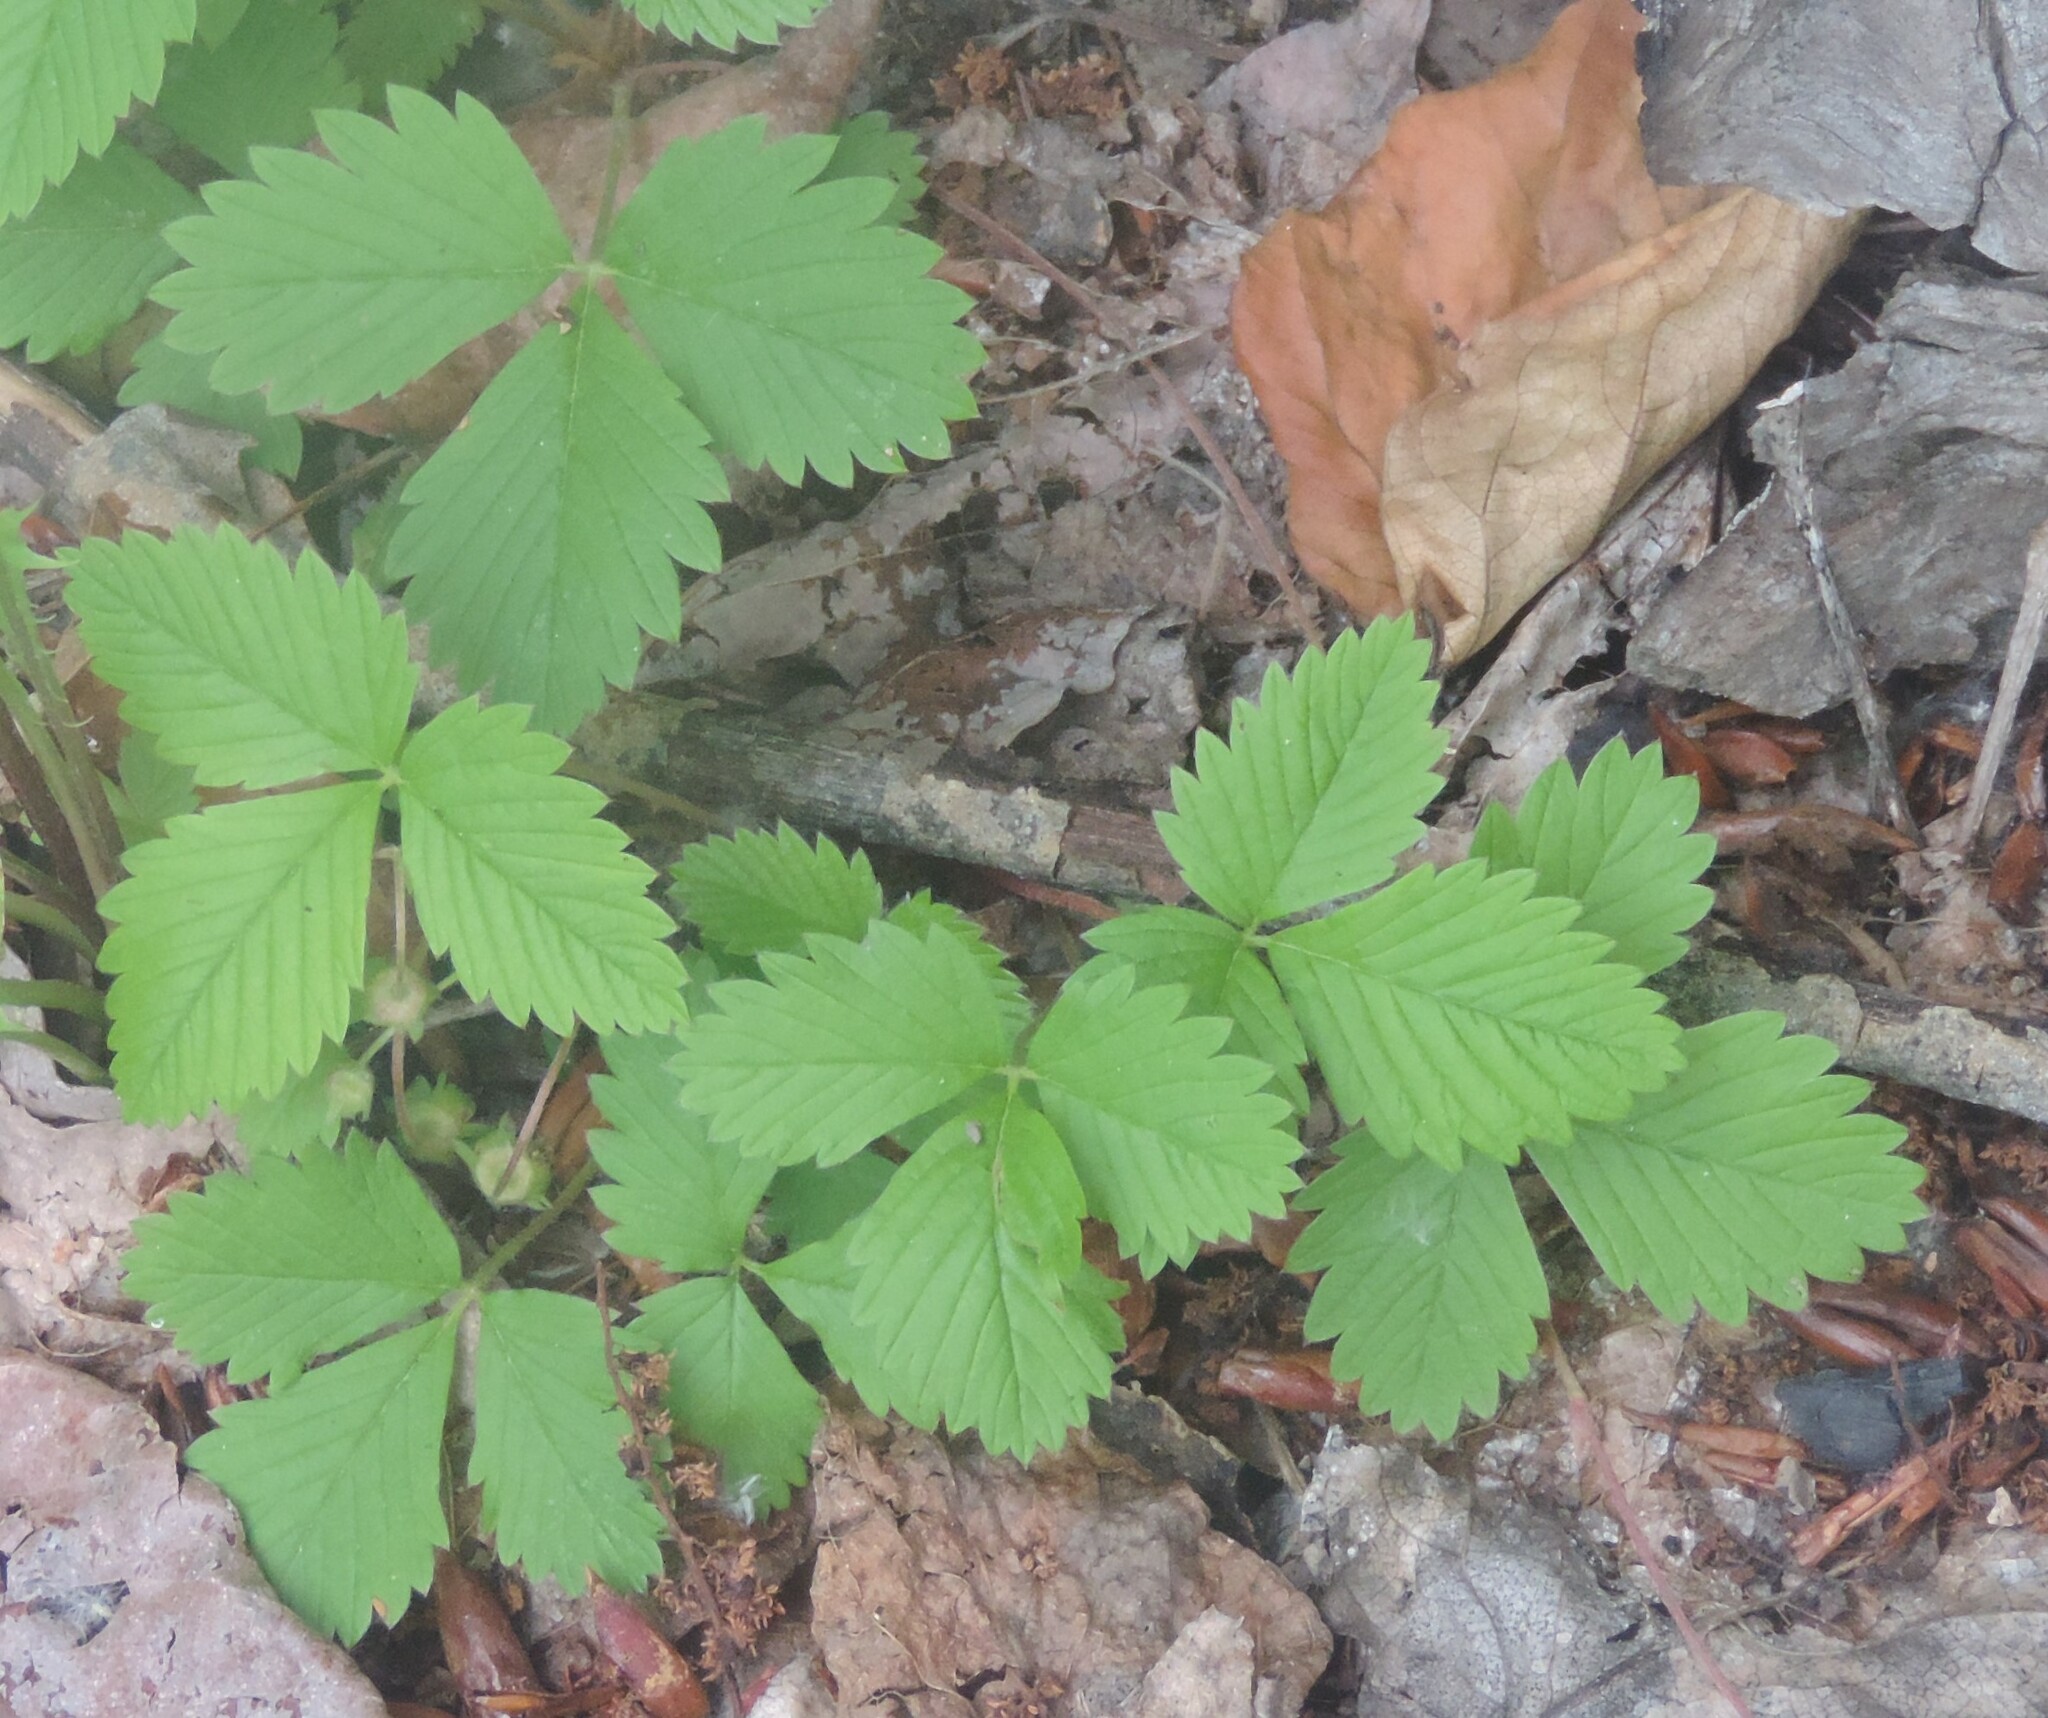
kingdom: Plantae
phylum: Tracheophyta
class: Magnoliopsida
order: Rosales
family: Rosaceae
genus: Fragaria
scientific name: Fragaria vesca
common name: Wild strawberry
